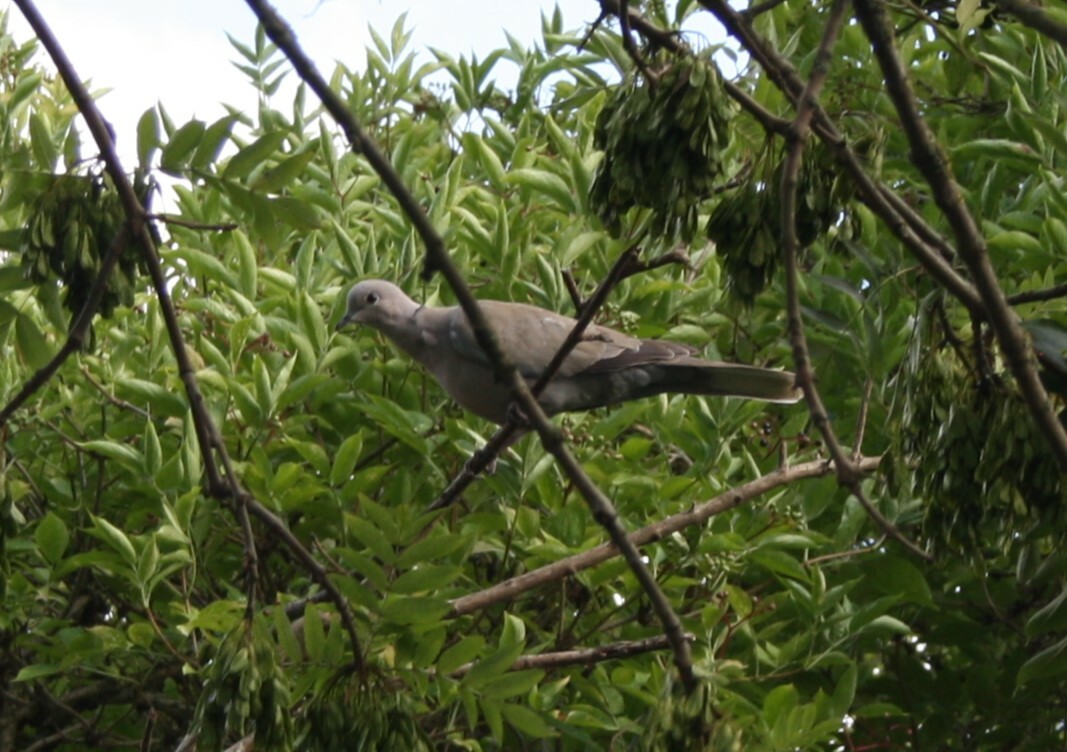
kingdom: Animalia
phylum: Chordata
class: Aves
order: Columbiformes
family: Columbidae
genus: Streptopelia
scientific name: Streptopelia decaocto
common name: Eurasian collared dove
